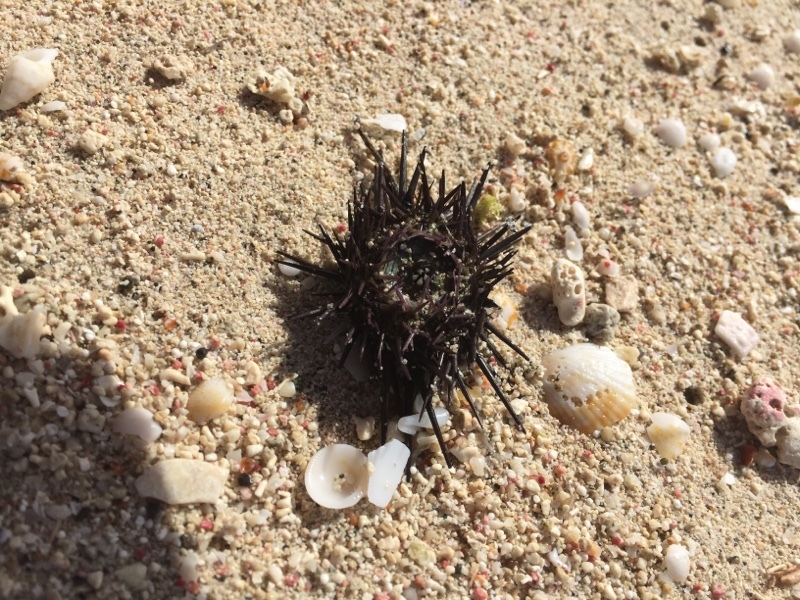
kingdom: Animalia
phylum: Echinodermata
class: Echinoidea
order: Camarodonta
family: Echinometridae
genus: Echinometra
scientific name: Echinometra viridis
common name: Reef urchin
